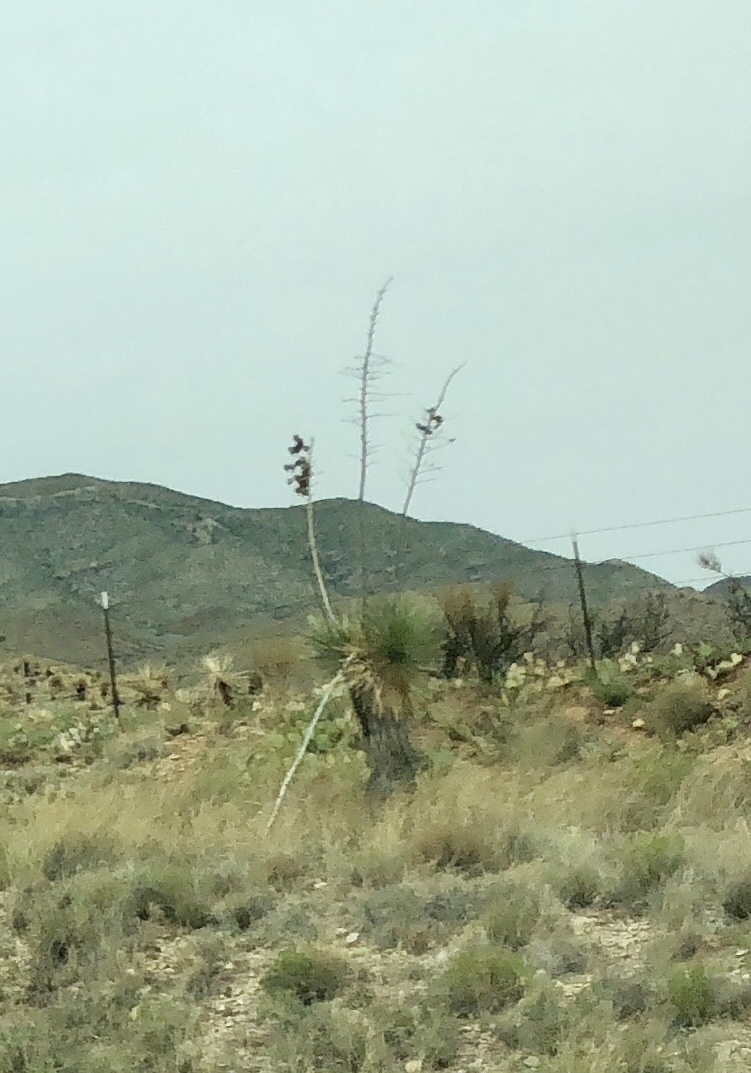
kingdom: Plantae
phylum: Tracheophyta
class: Liliopsida
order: Asparagales
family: Asparagaceae
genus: Yucca
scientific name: Yucca elata
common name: Palmella
